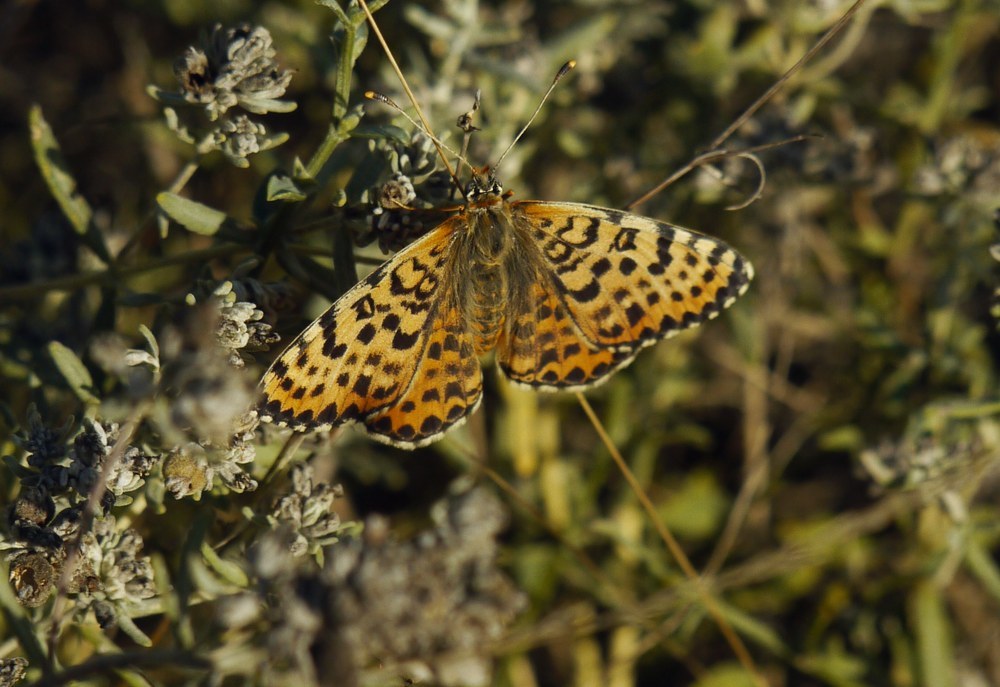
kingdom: Animalia
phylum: Arthropoda
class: Insecta
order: Lepidoptera
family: Nymphalidae
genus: Melitaea
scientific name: Melitaea didyma
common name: Spotted fritillary
